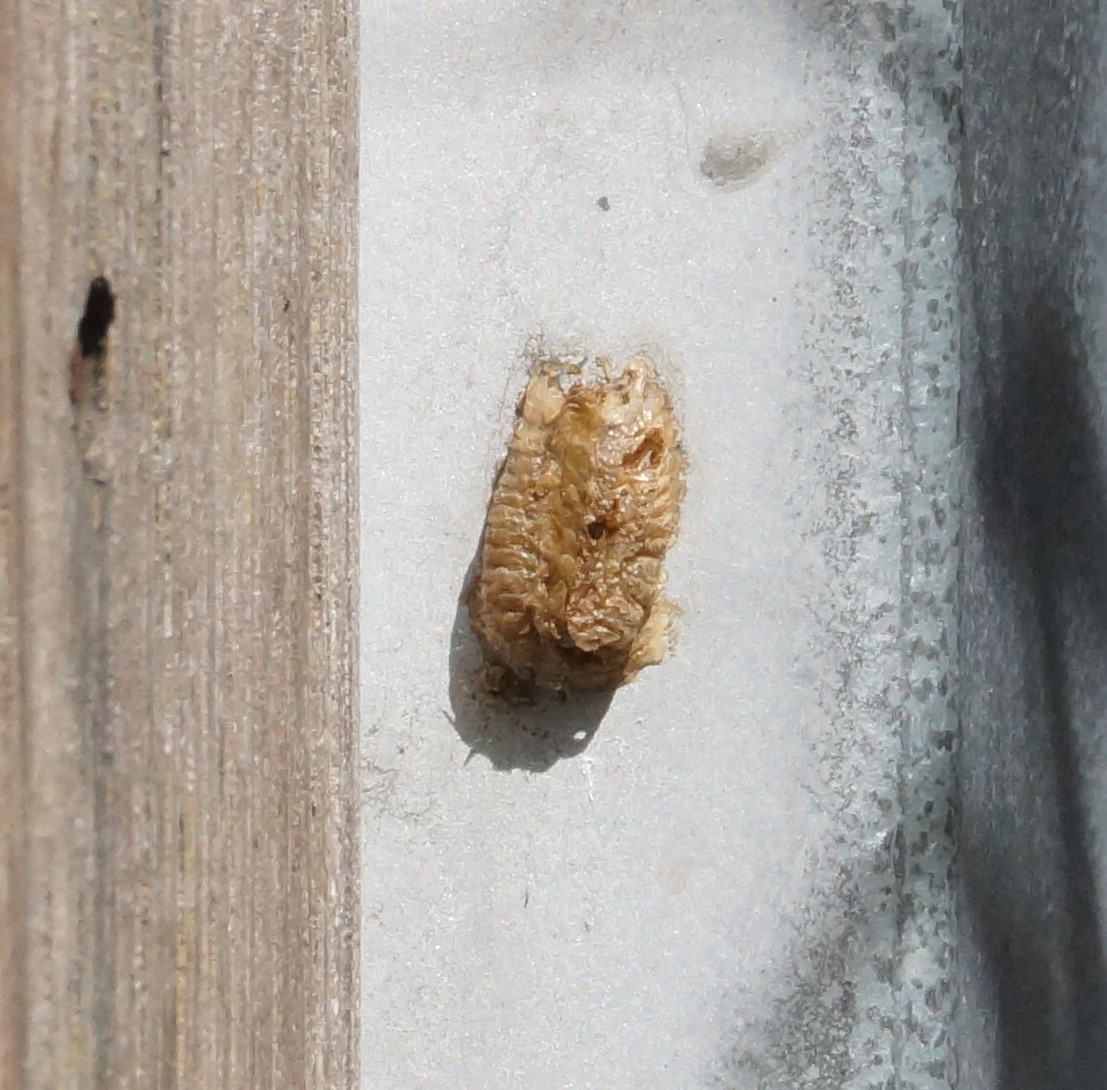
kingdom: Animalia
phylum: Arthropoda
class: Insecta
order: Mantodea
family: Mantidae
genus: Pseudomantis
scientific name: Pseudomantis albofimbriata
